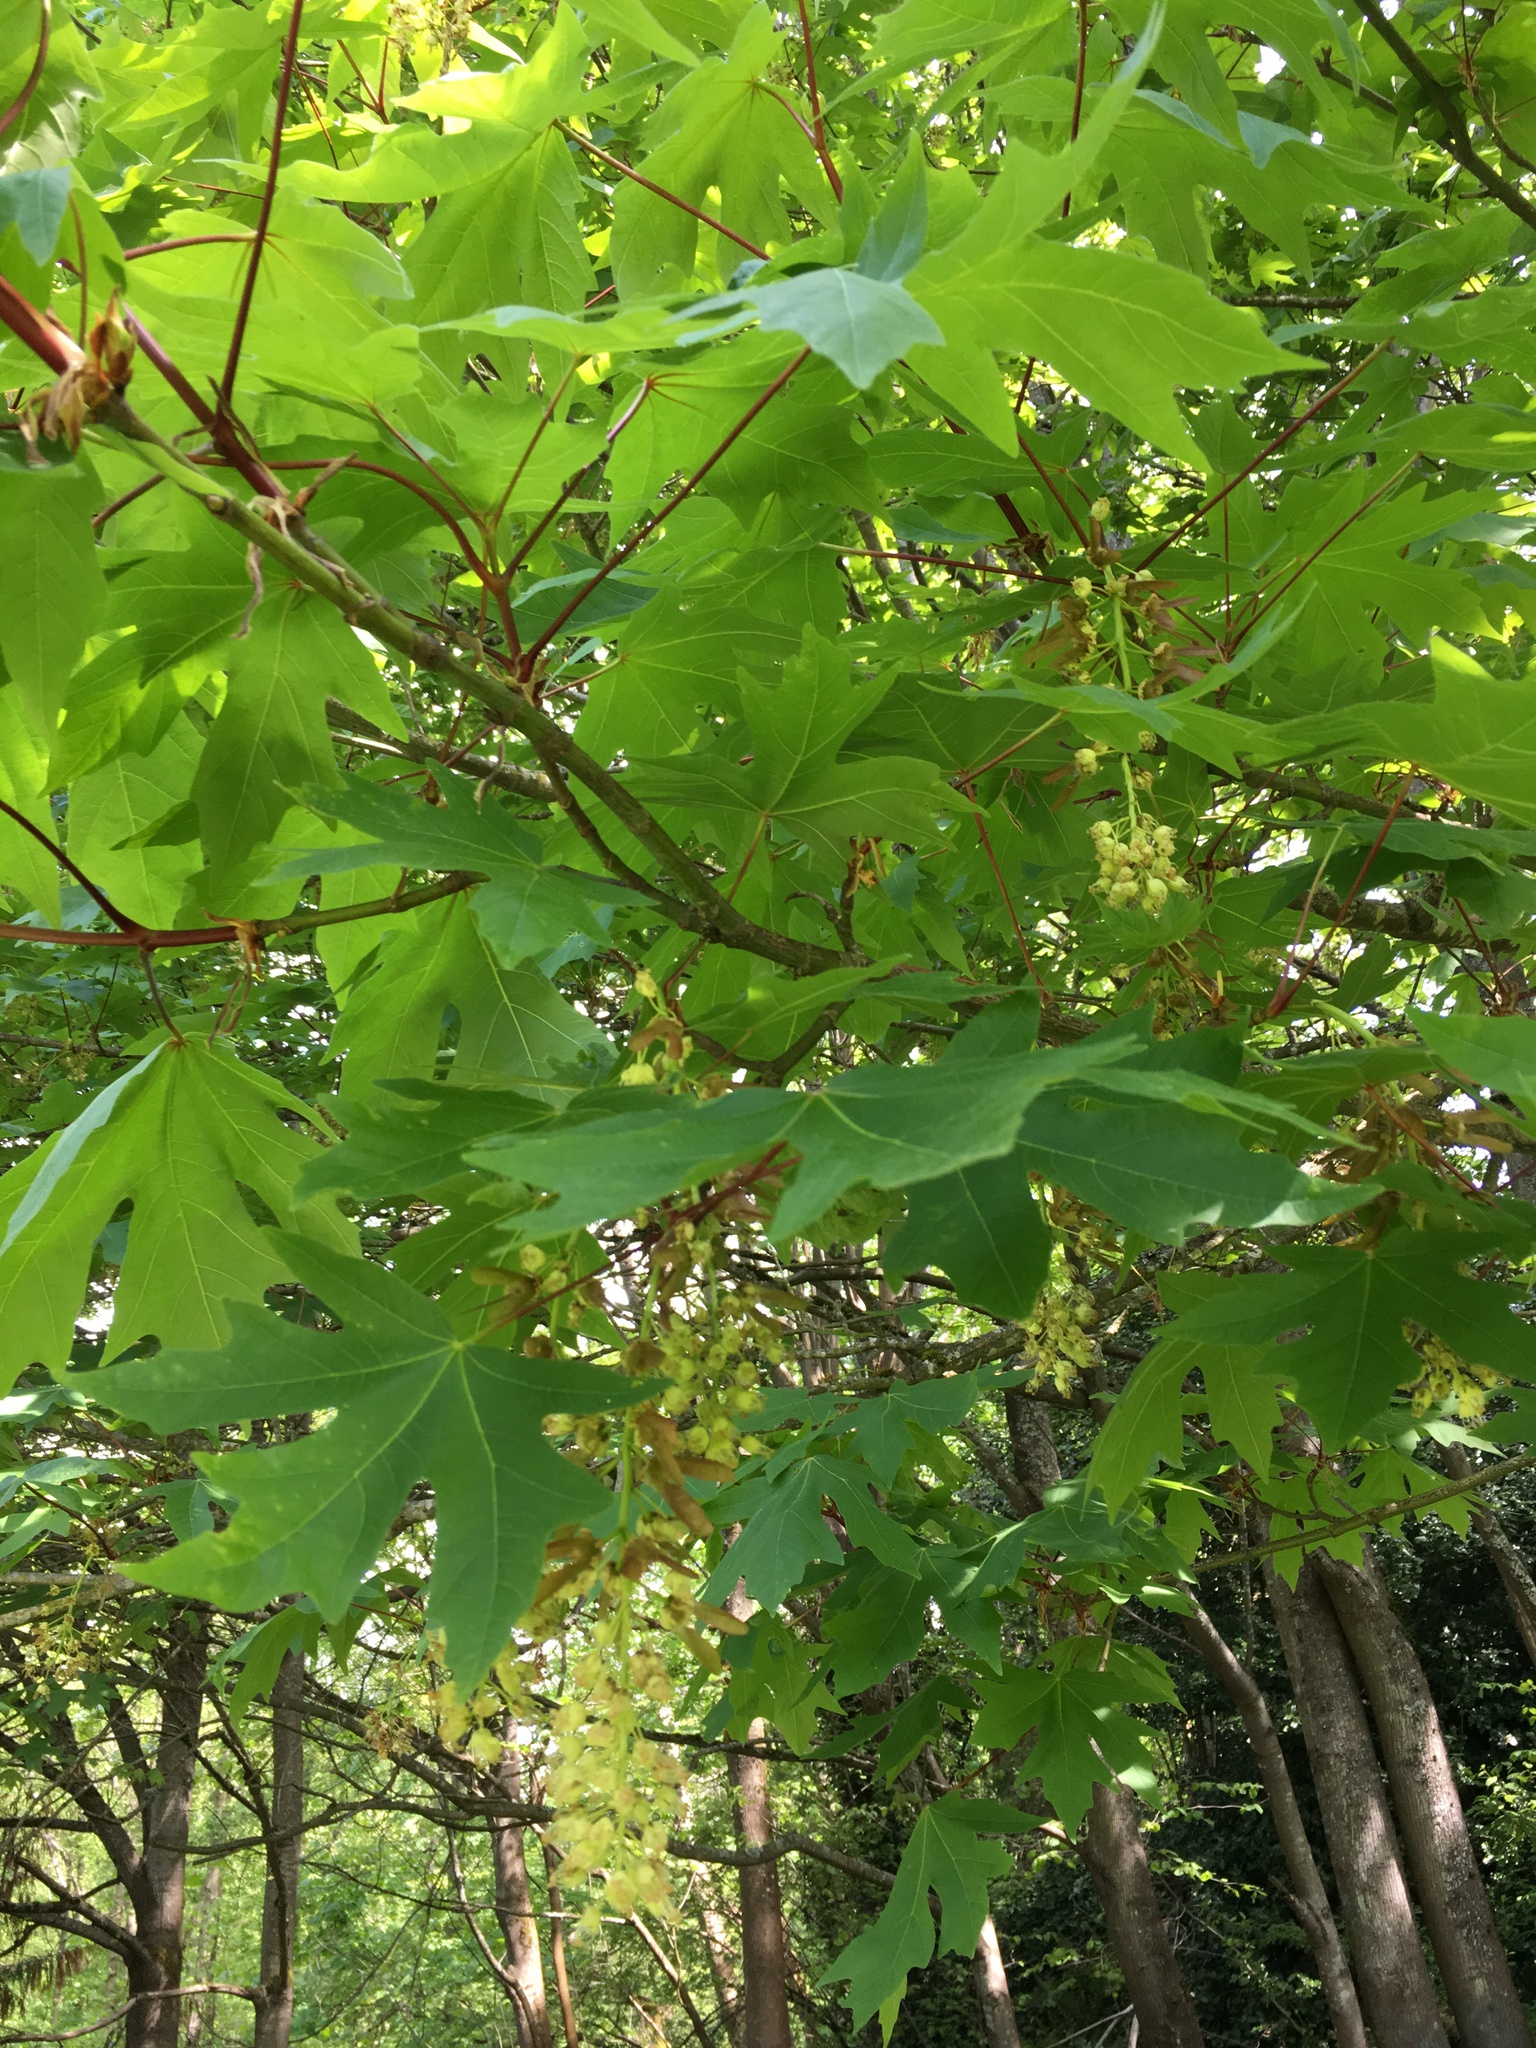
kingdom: Plantae
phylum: Tracheophyta
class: Magnoliopsida
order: Sapindales
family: Sapindaceae
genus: Acer
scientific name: Acer macrophyllum
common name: Oregon maple
